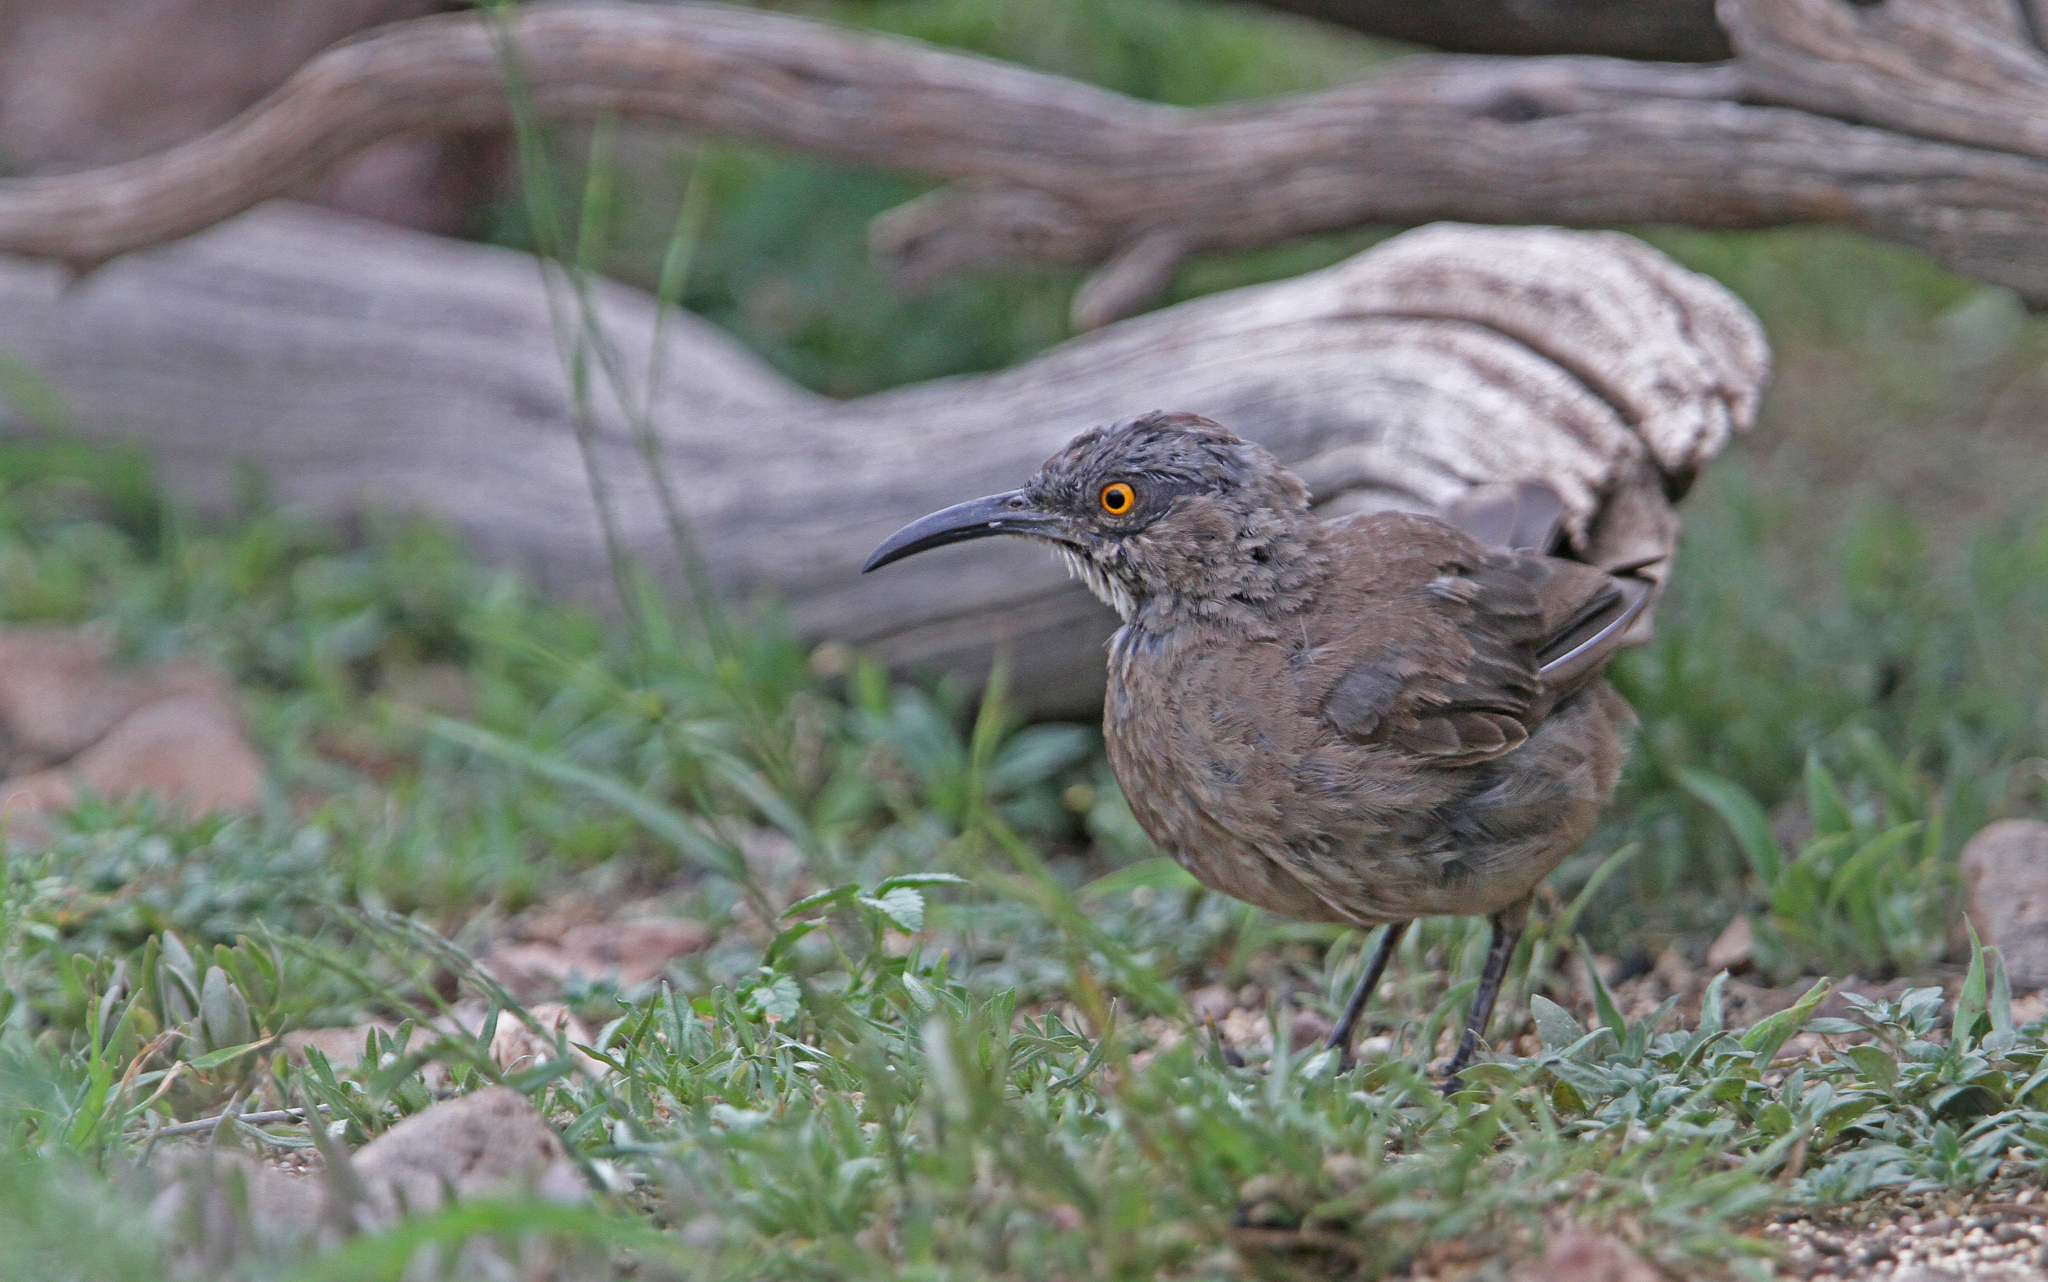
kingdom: Animalia
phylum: Chordata
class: Aves
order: Passeriformes
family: Mimidae
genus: Toxostoma
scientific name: Toxostoma curvirostre
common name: Curve-billed thrasher
